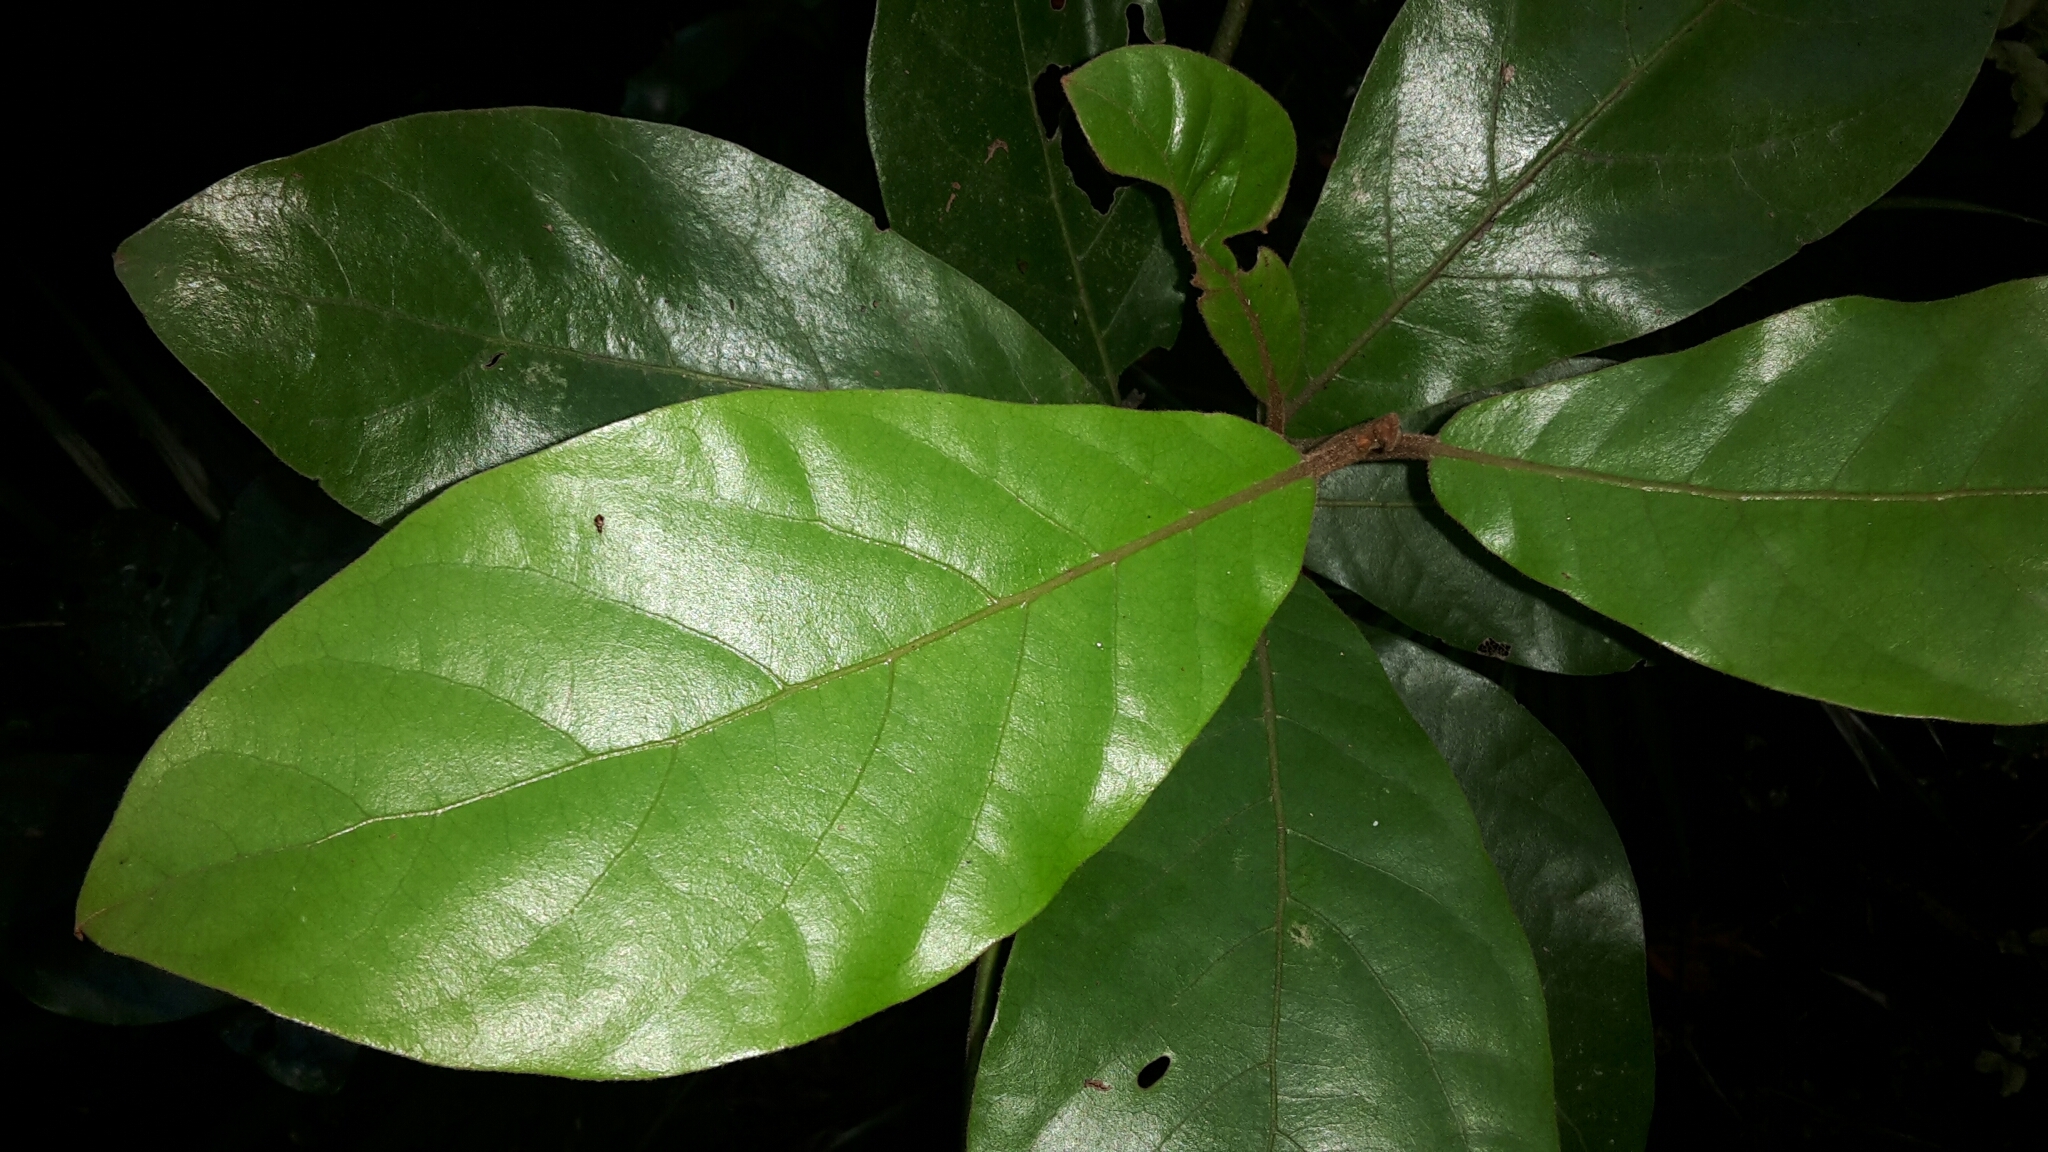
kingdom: Plantae
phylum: Tracheophyta
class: Magnoliopsida
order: Laurales
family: Lauraceae
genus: Beilschmiedia
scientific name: Beilschmiedia tarairi
